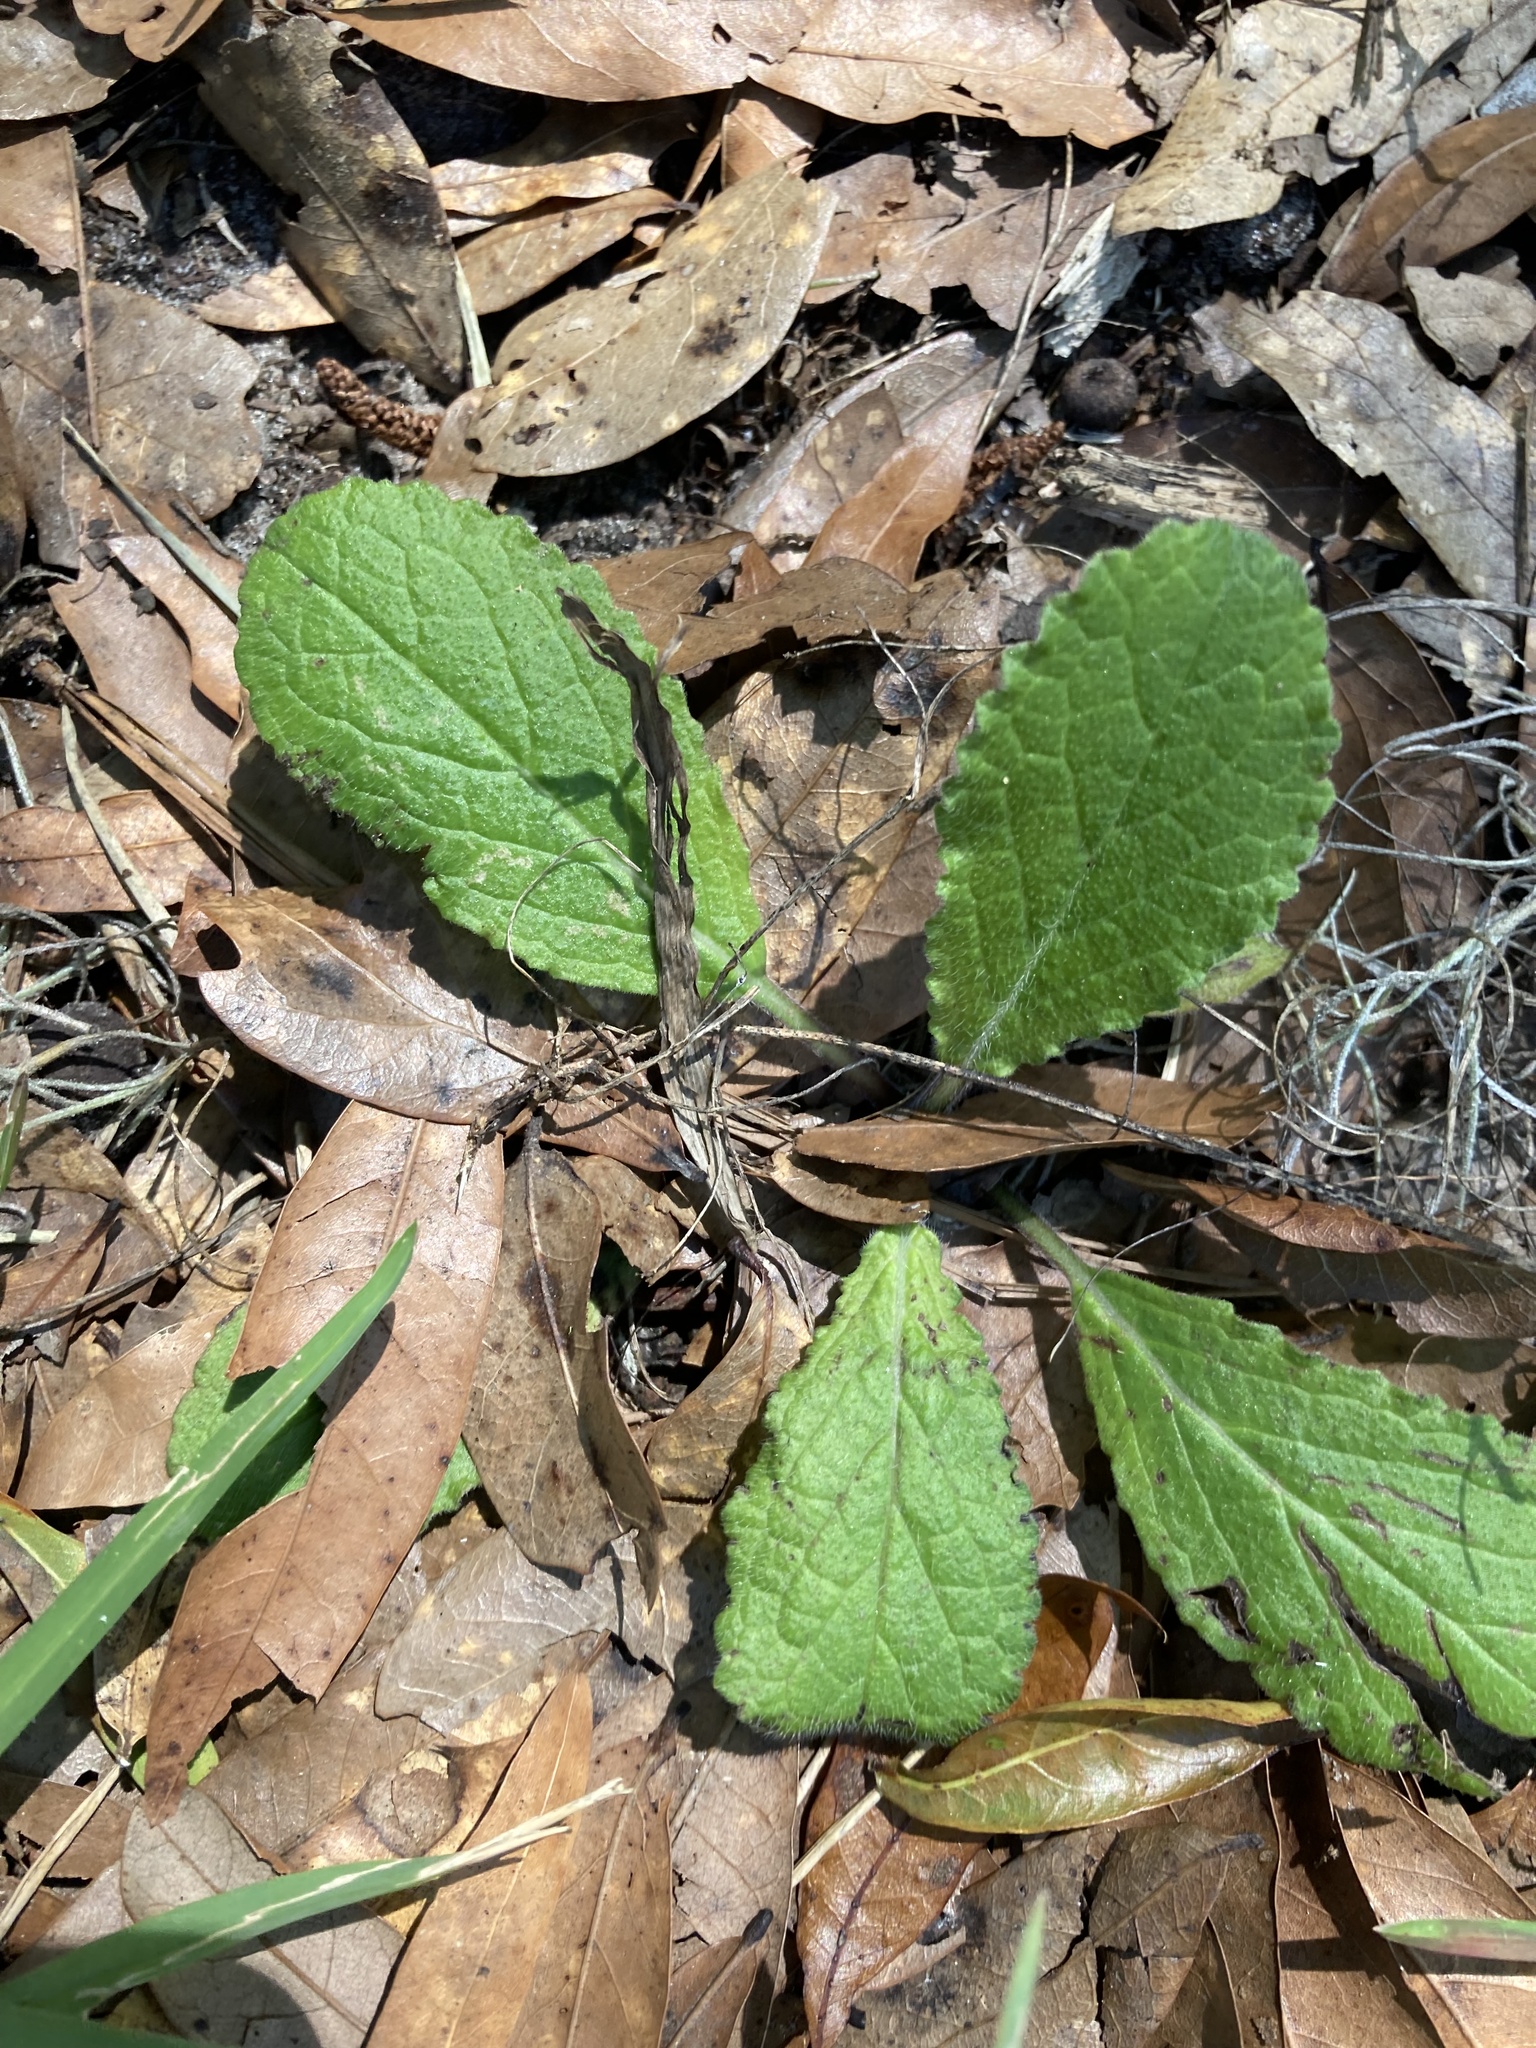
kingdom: Plantae
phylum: Tracheophyta
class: Magnoliopsida
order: Lamiales
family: Lamiaceae
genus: Salvia
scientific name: Salvia lyrata
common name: Cancerweed
